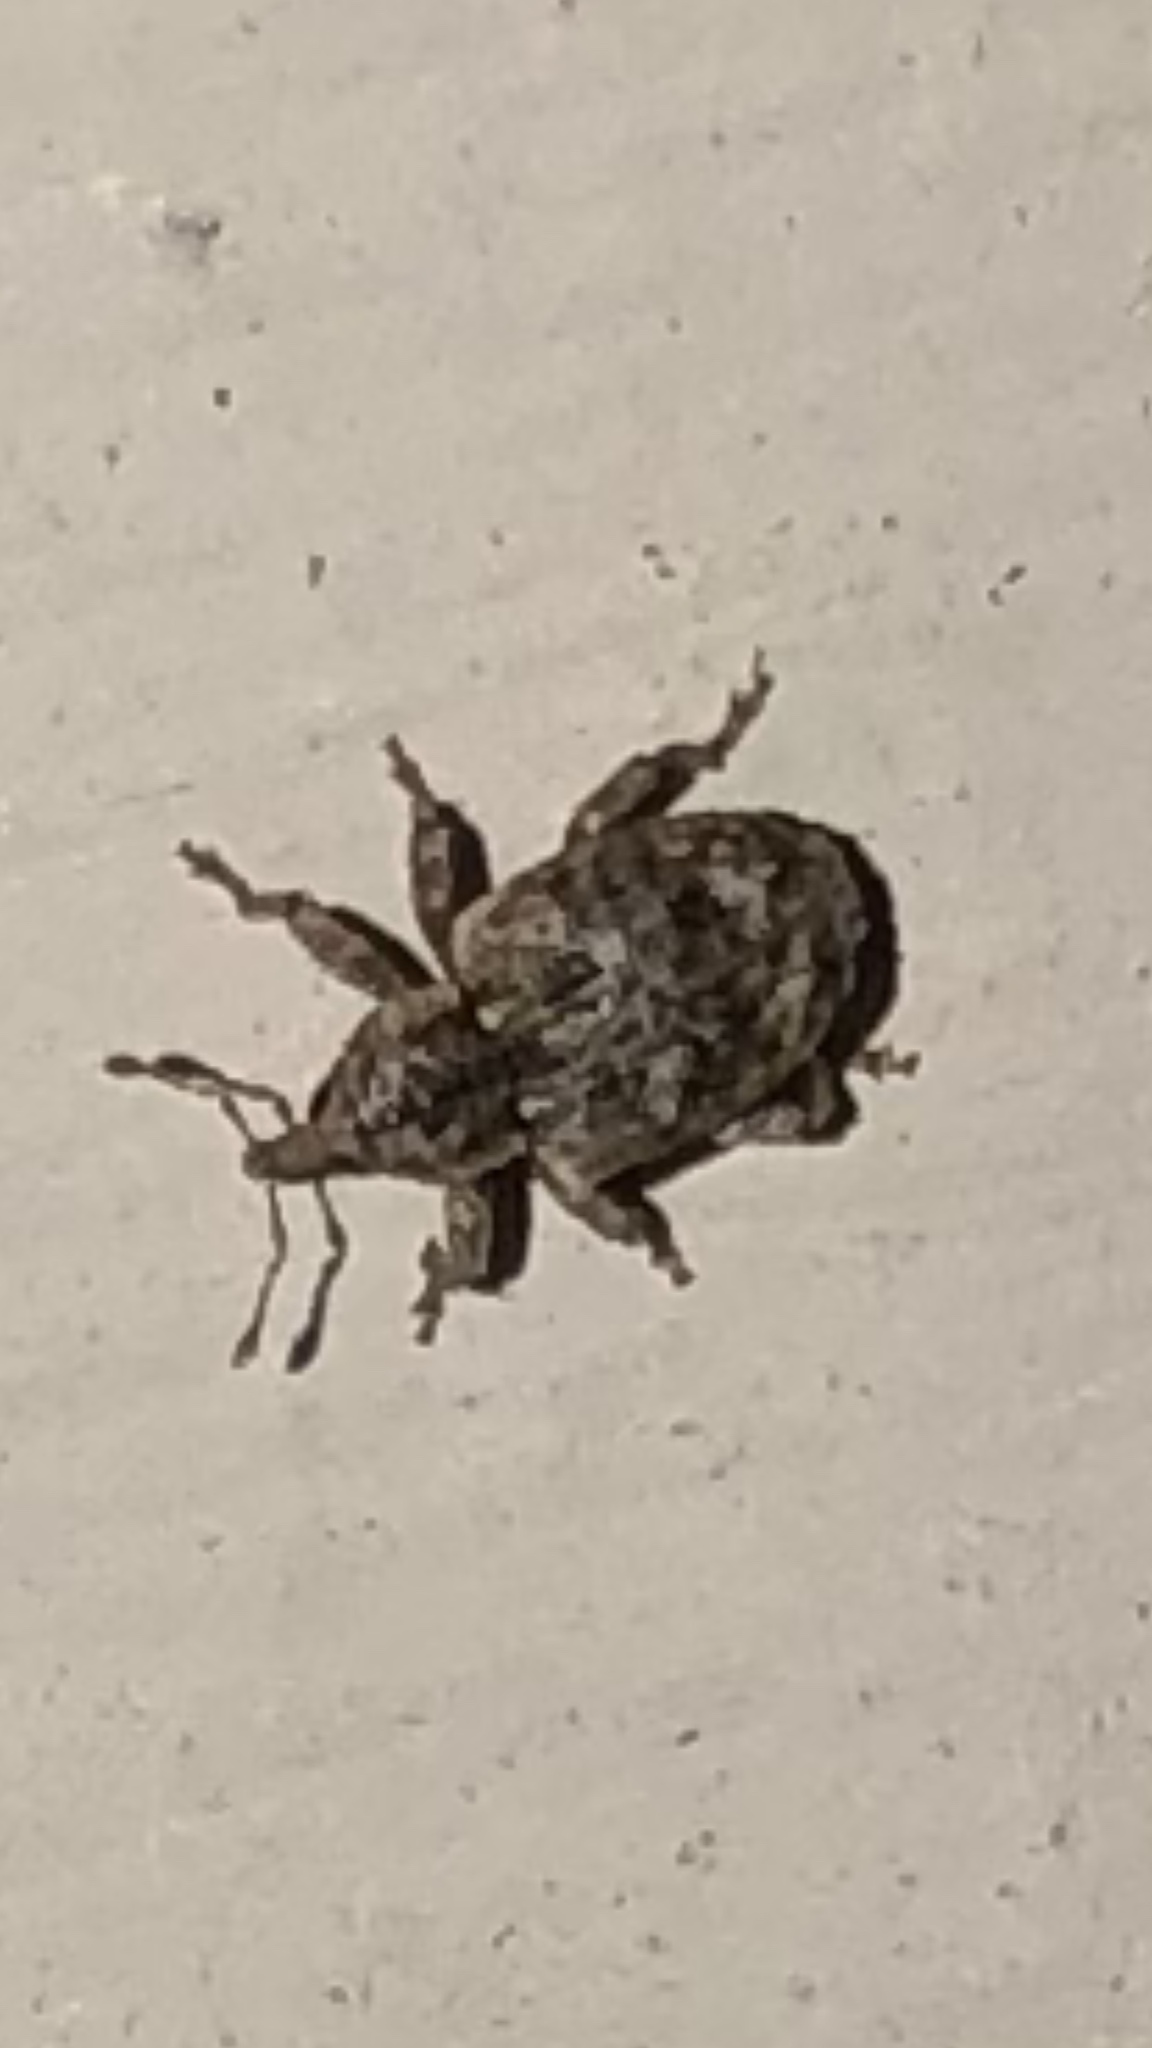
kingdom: Animalia
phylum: Arthropoda
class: Insecta
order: Coleoptera
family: Curculionidae
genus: Conotrachelus
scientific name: Conotrachelus recessus
